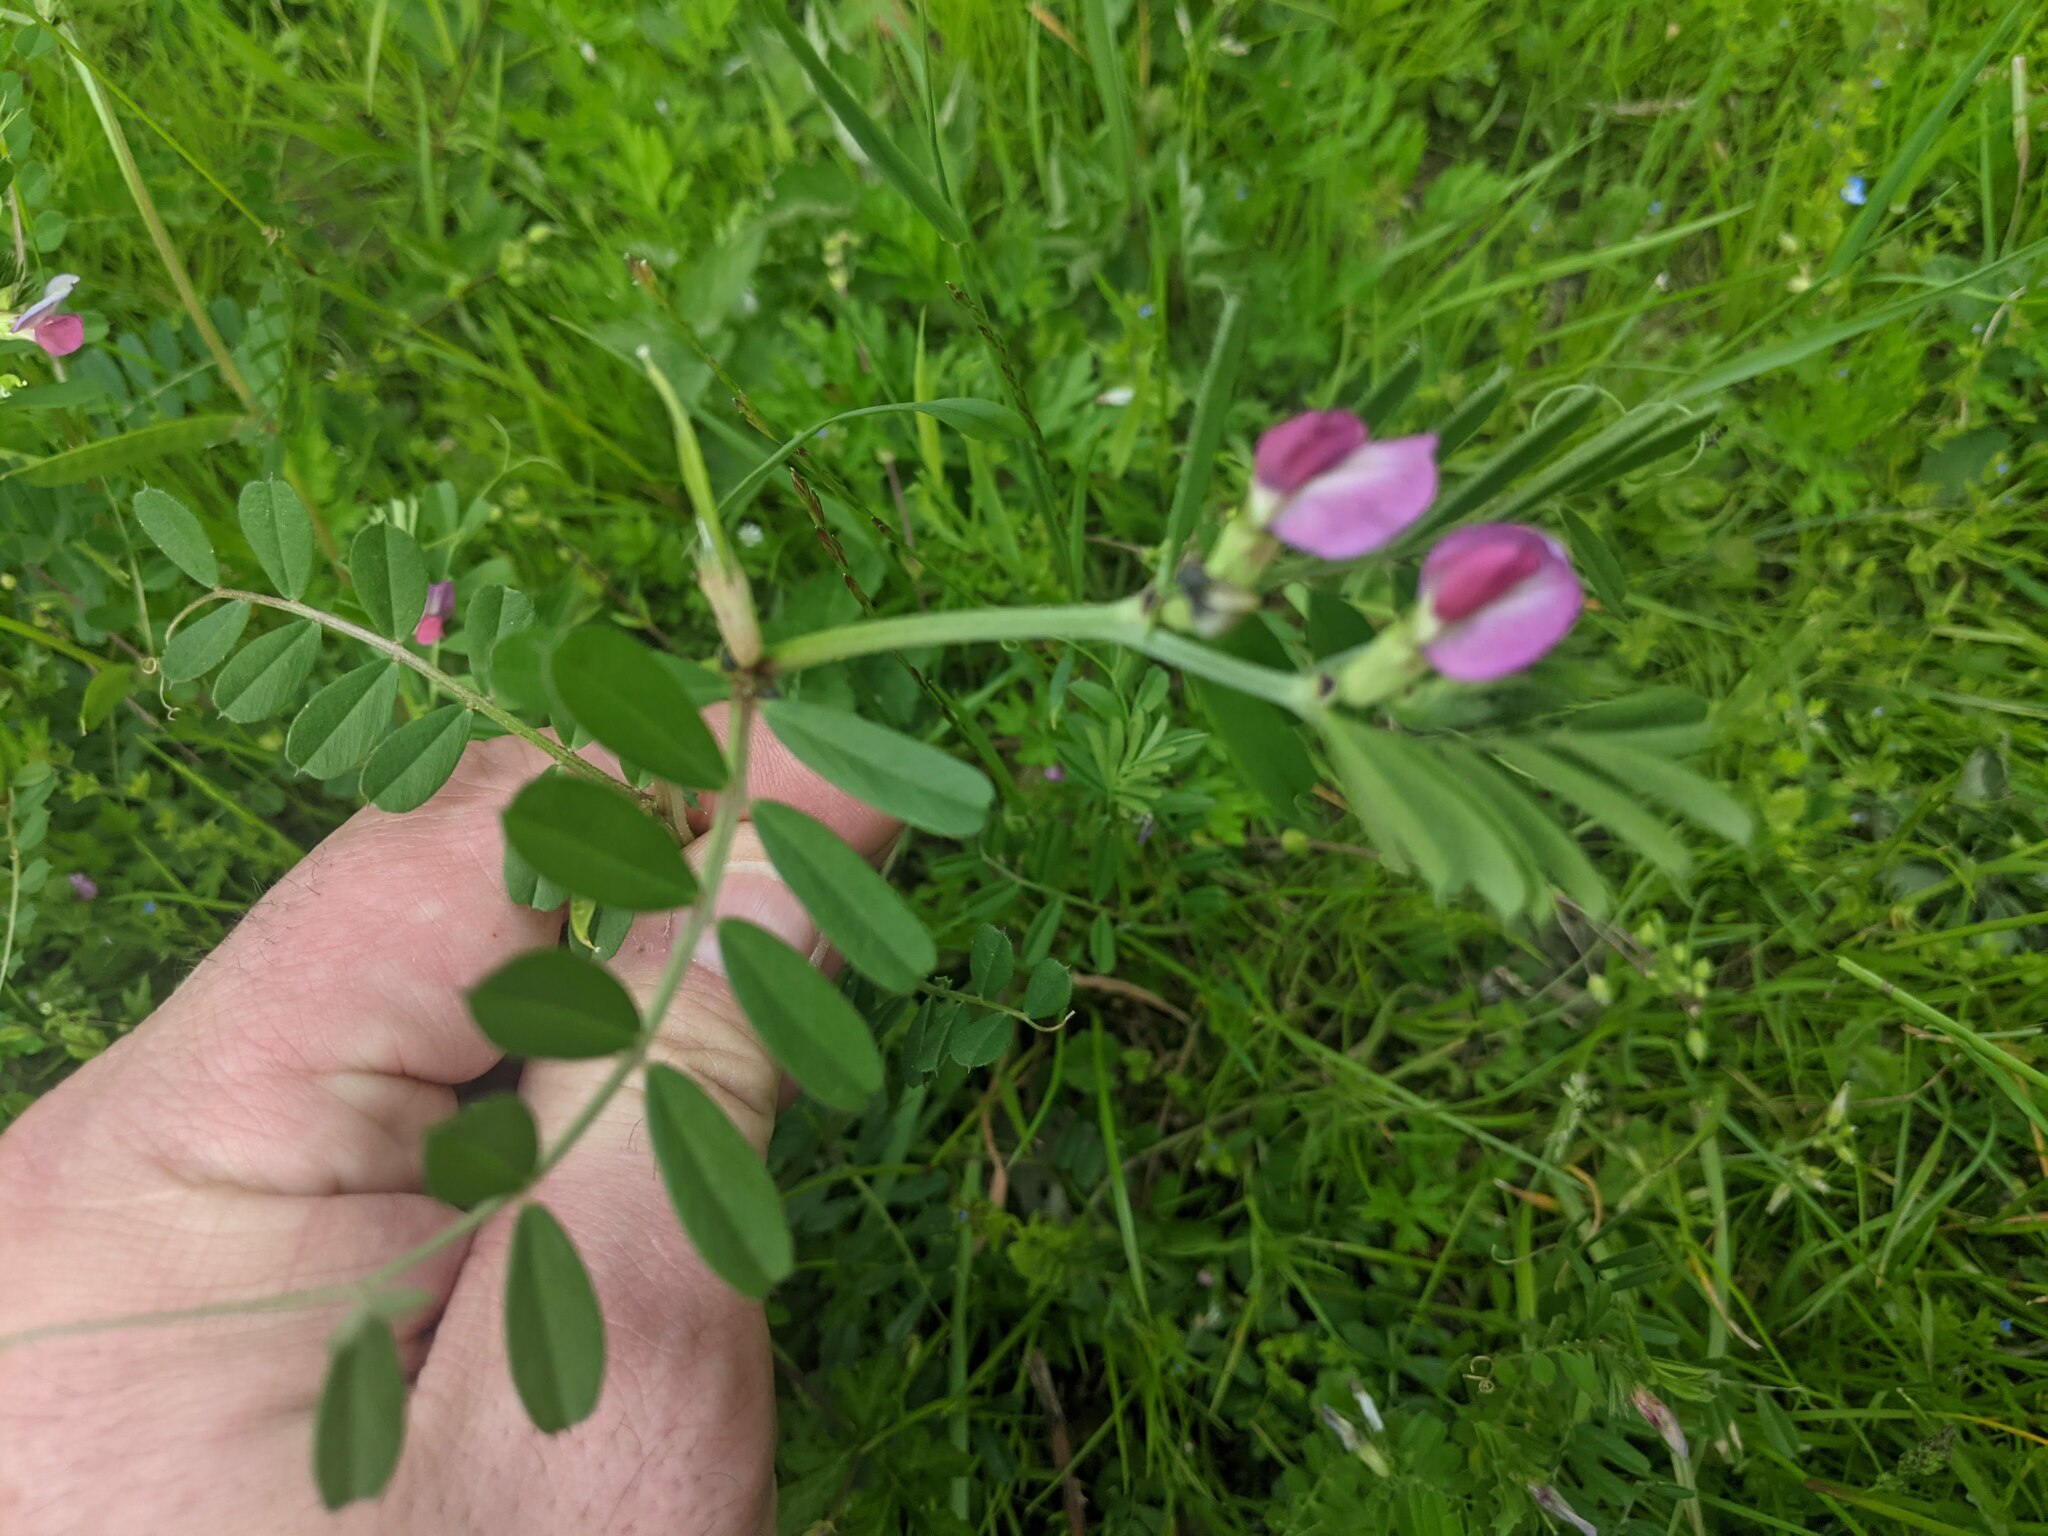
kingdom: Plantae
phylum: Tracheophyta
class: Magnoliopsida
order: Fabales
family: Fabaceae
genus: Vicia
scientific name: Vicia sativa
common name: Garden vetch
